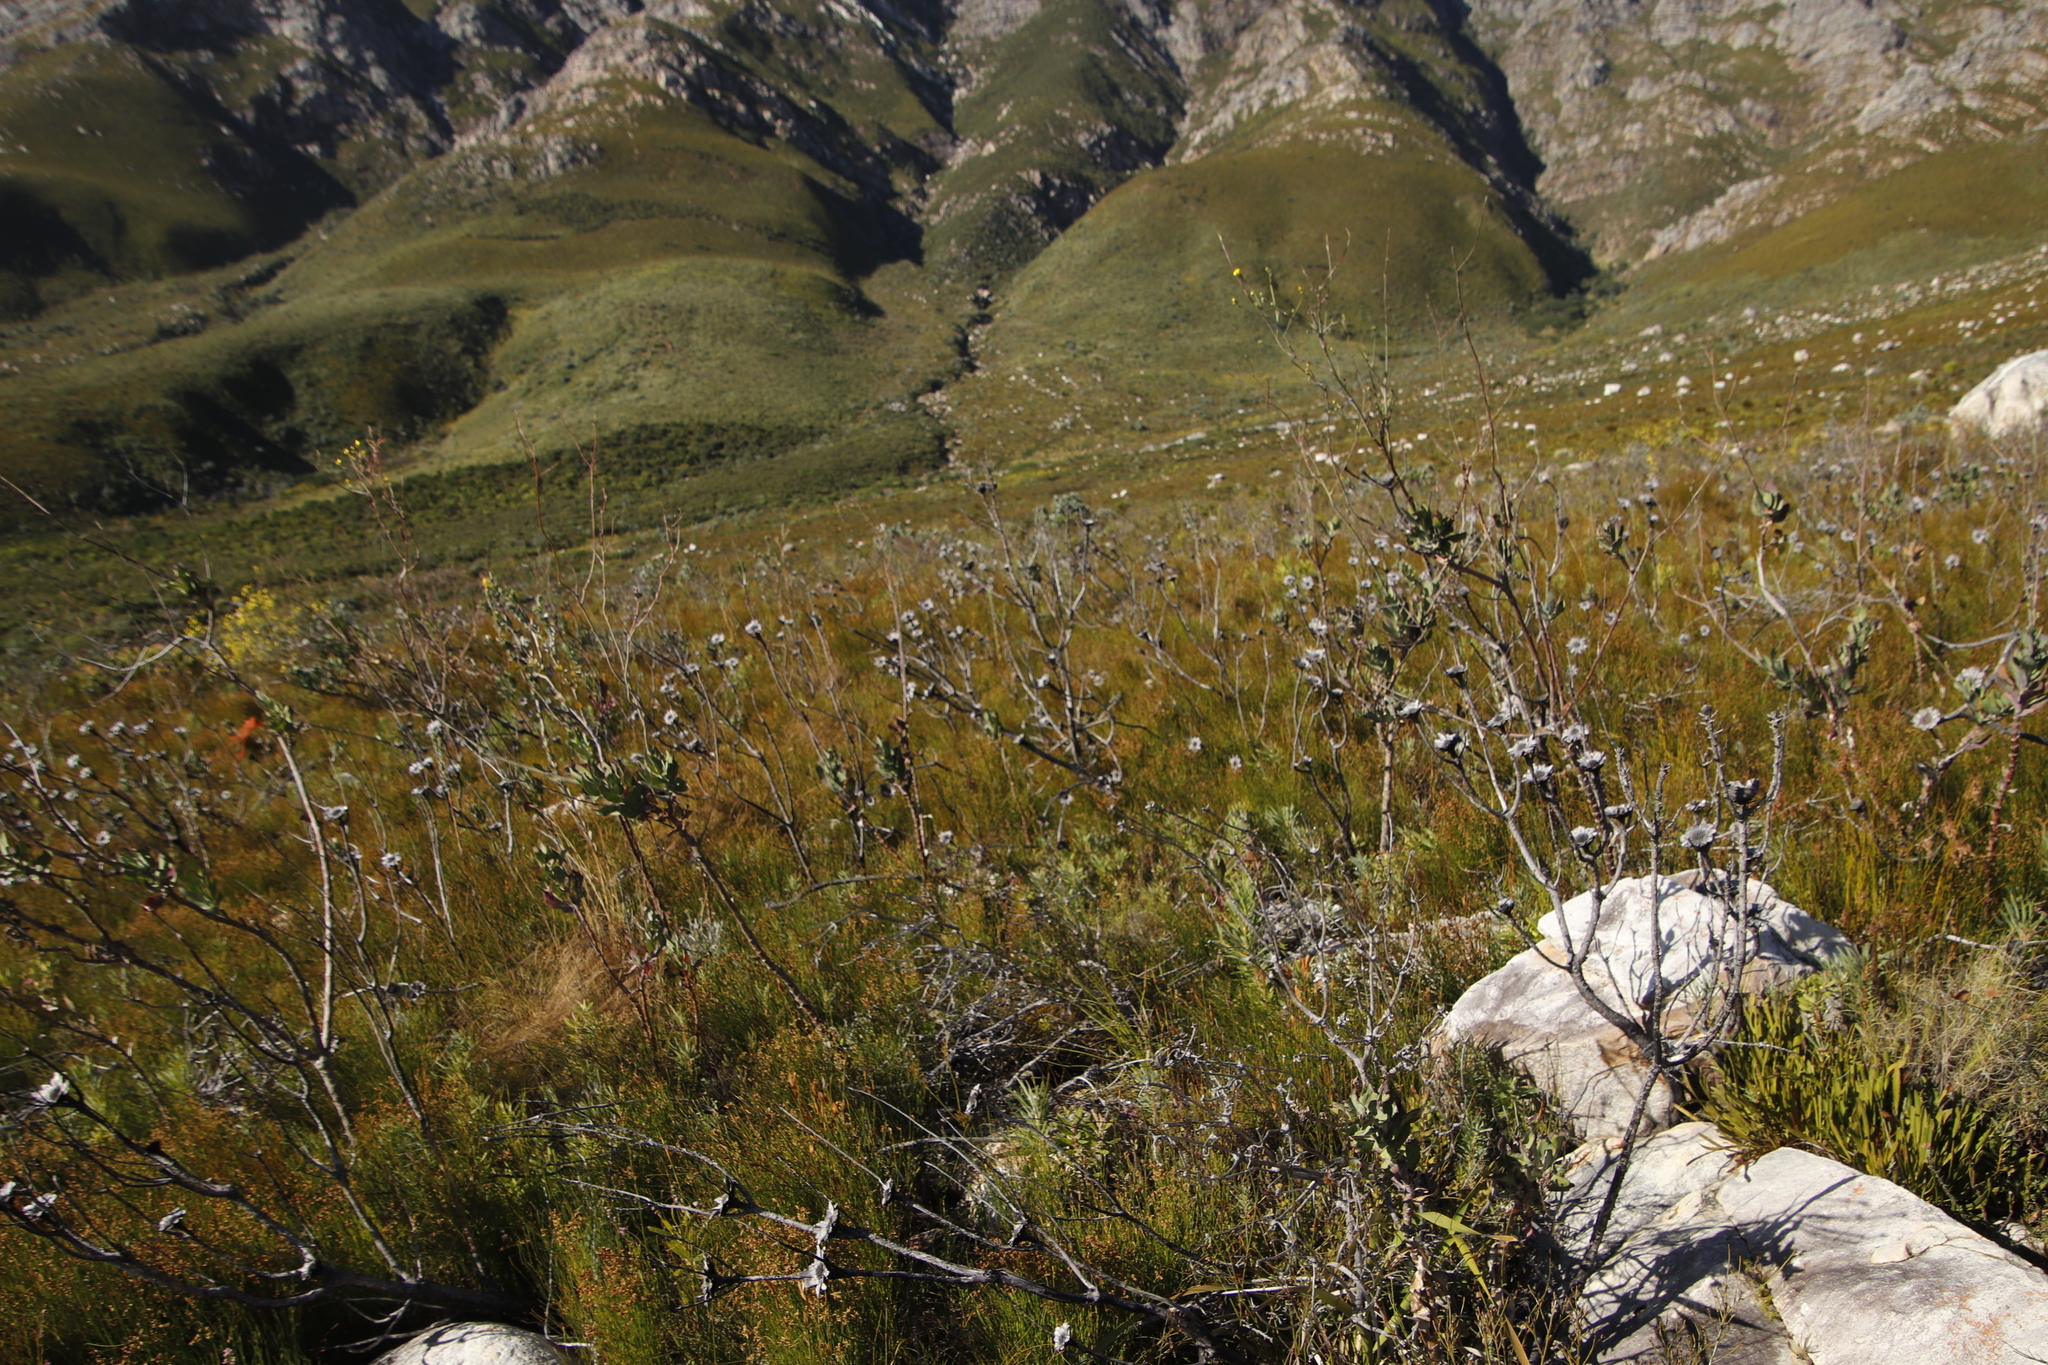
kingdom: Plantae
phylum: Tracheophyta
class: Magnoliopsida
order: Proteales
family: Proteaceae
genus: Protea
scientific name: Protea repens
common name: Sugarbush
